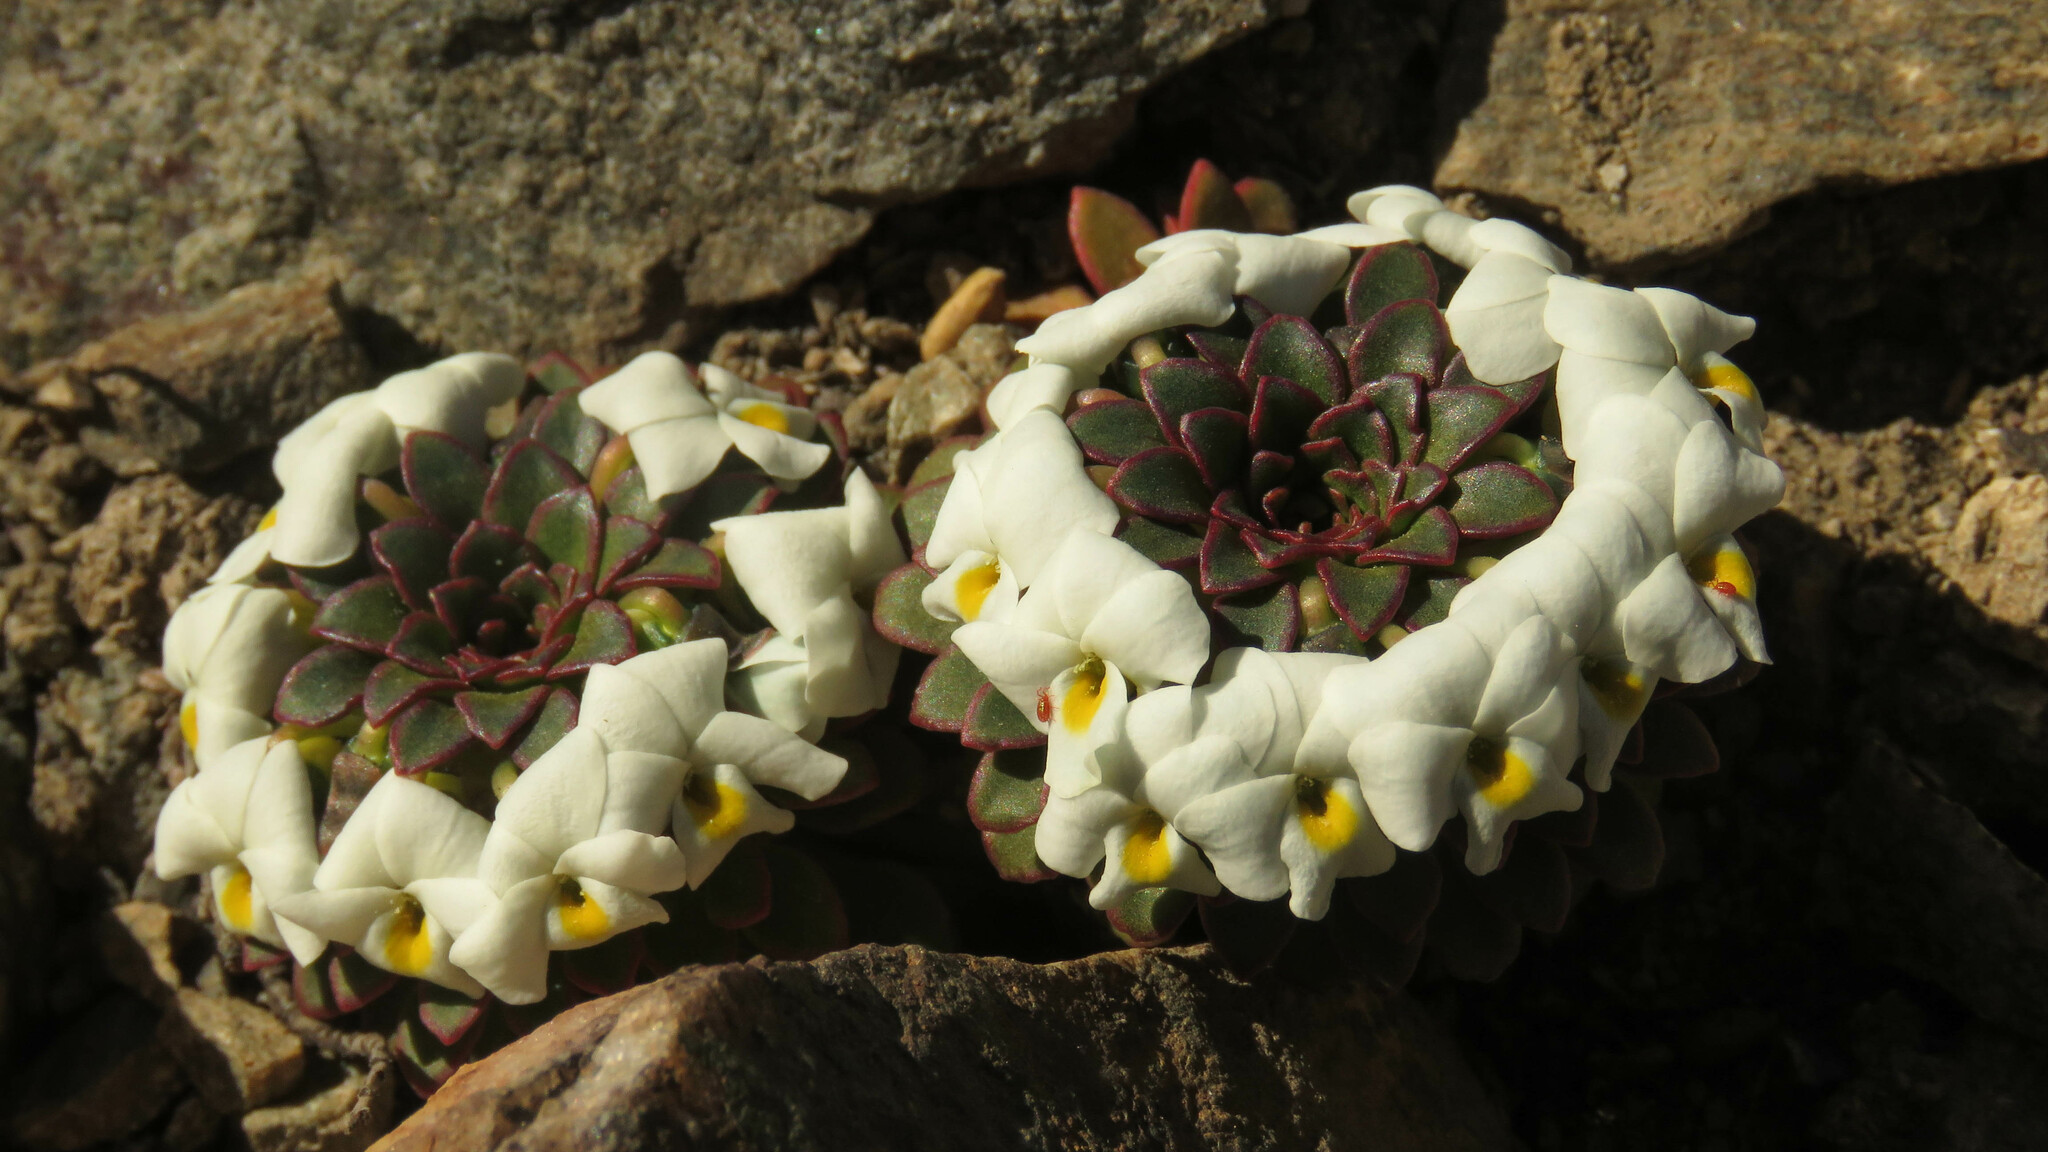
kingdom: Plantae
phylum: Tracheophyta
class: Magnoliopsida
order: Malpighiales
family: Violaceae
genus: Viola
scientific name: Viola sacculus
